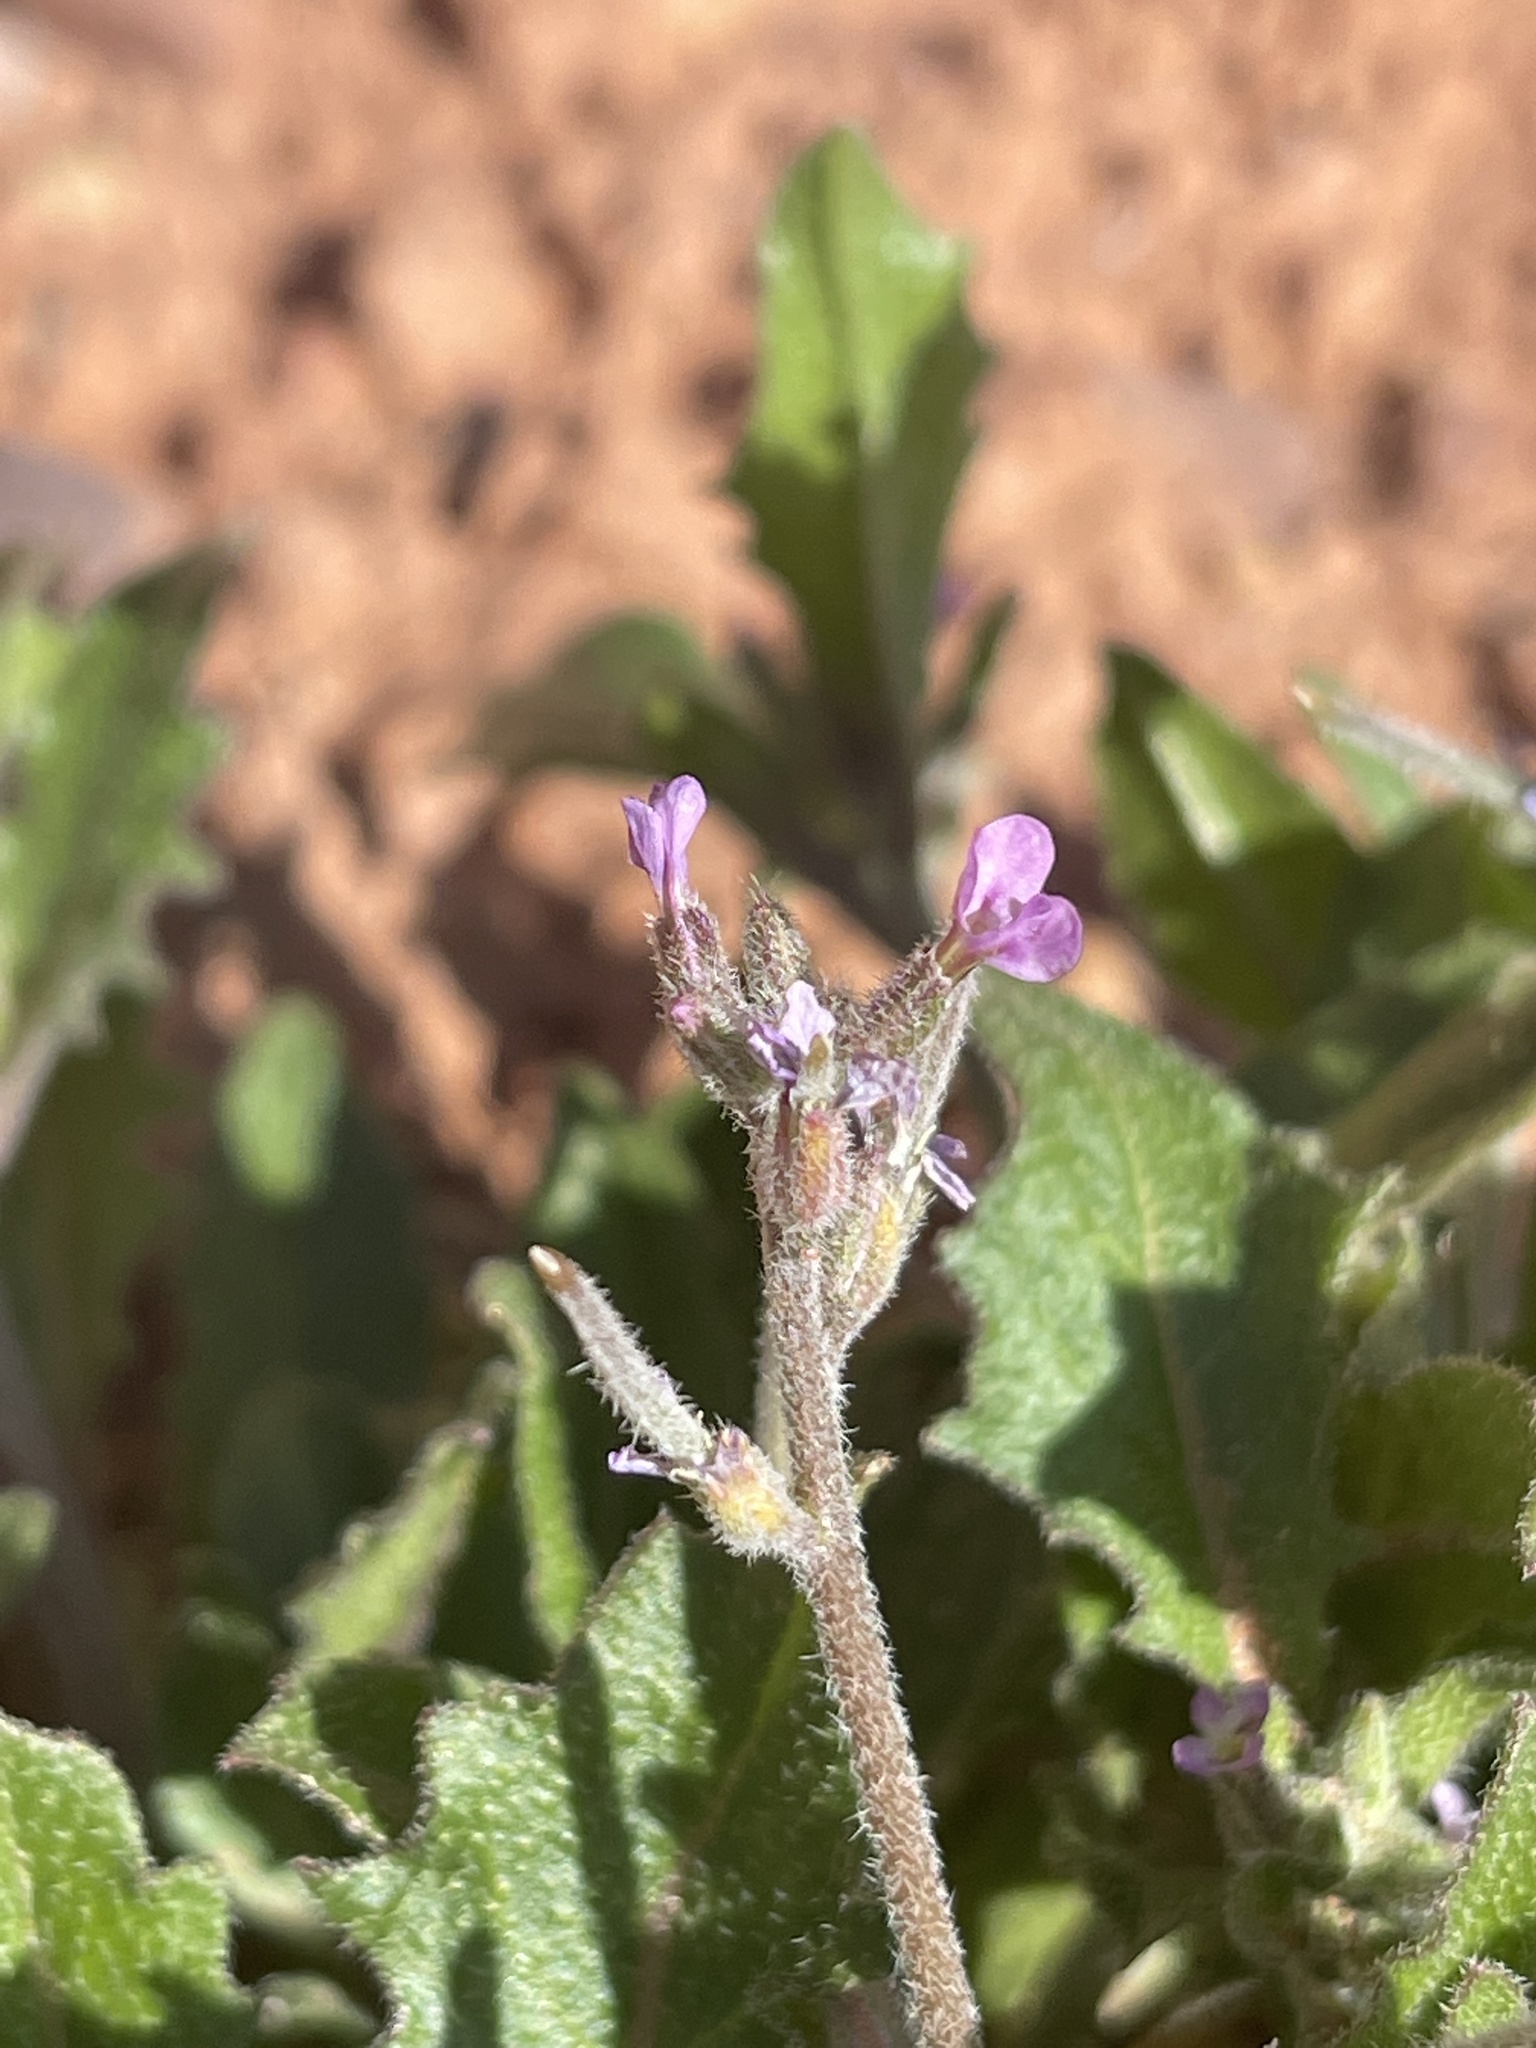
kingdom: Plantae
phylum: Tracheophyta
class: Magnoliopsida
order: Brassicales
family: Brassicaceae
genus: Strigosella
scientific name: Strigosella africana
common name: African mustard
